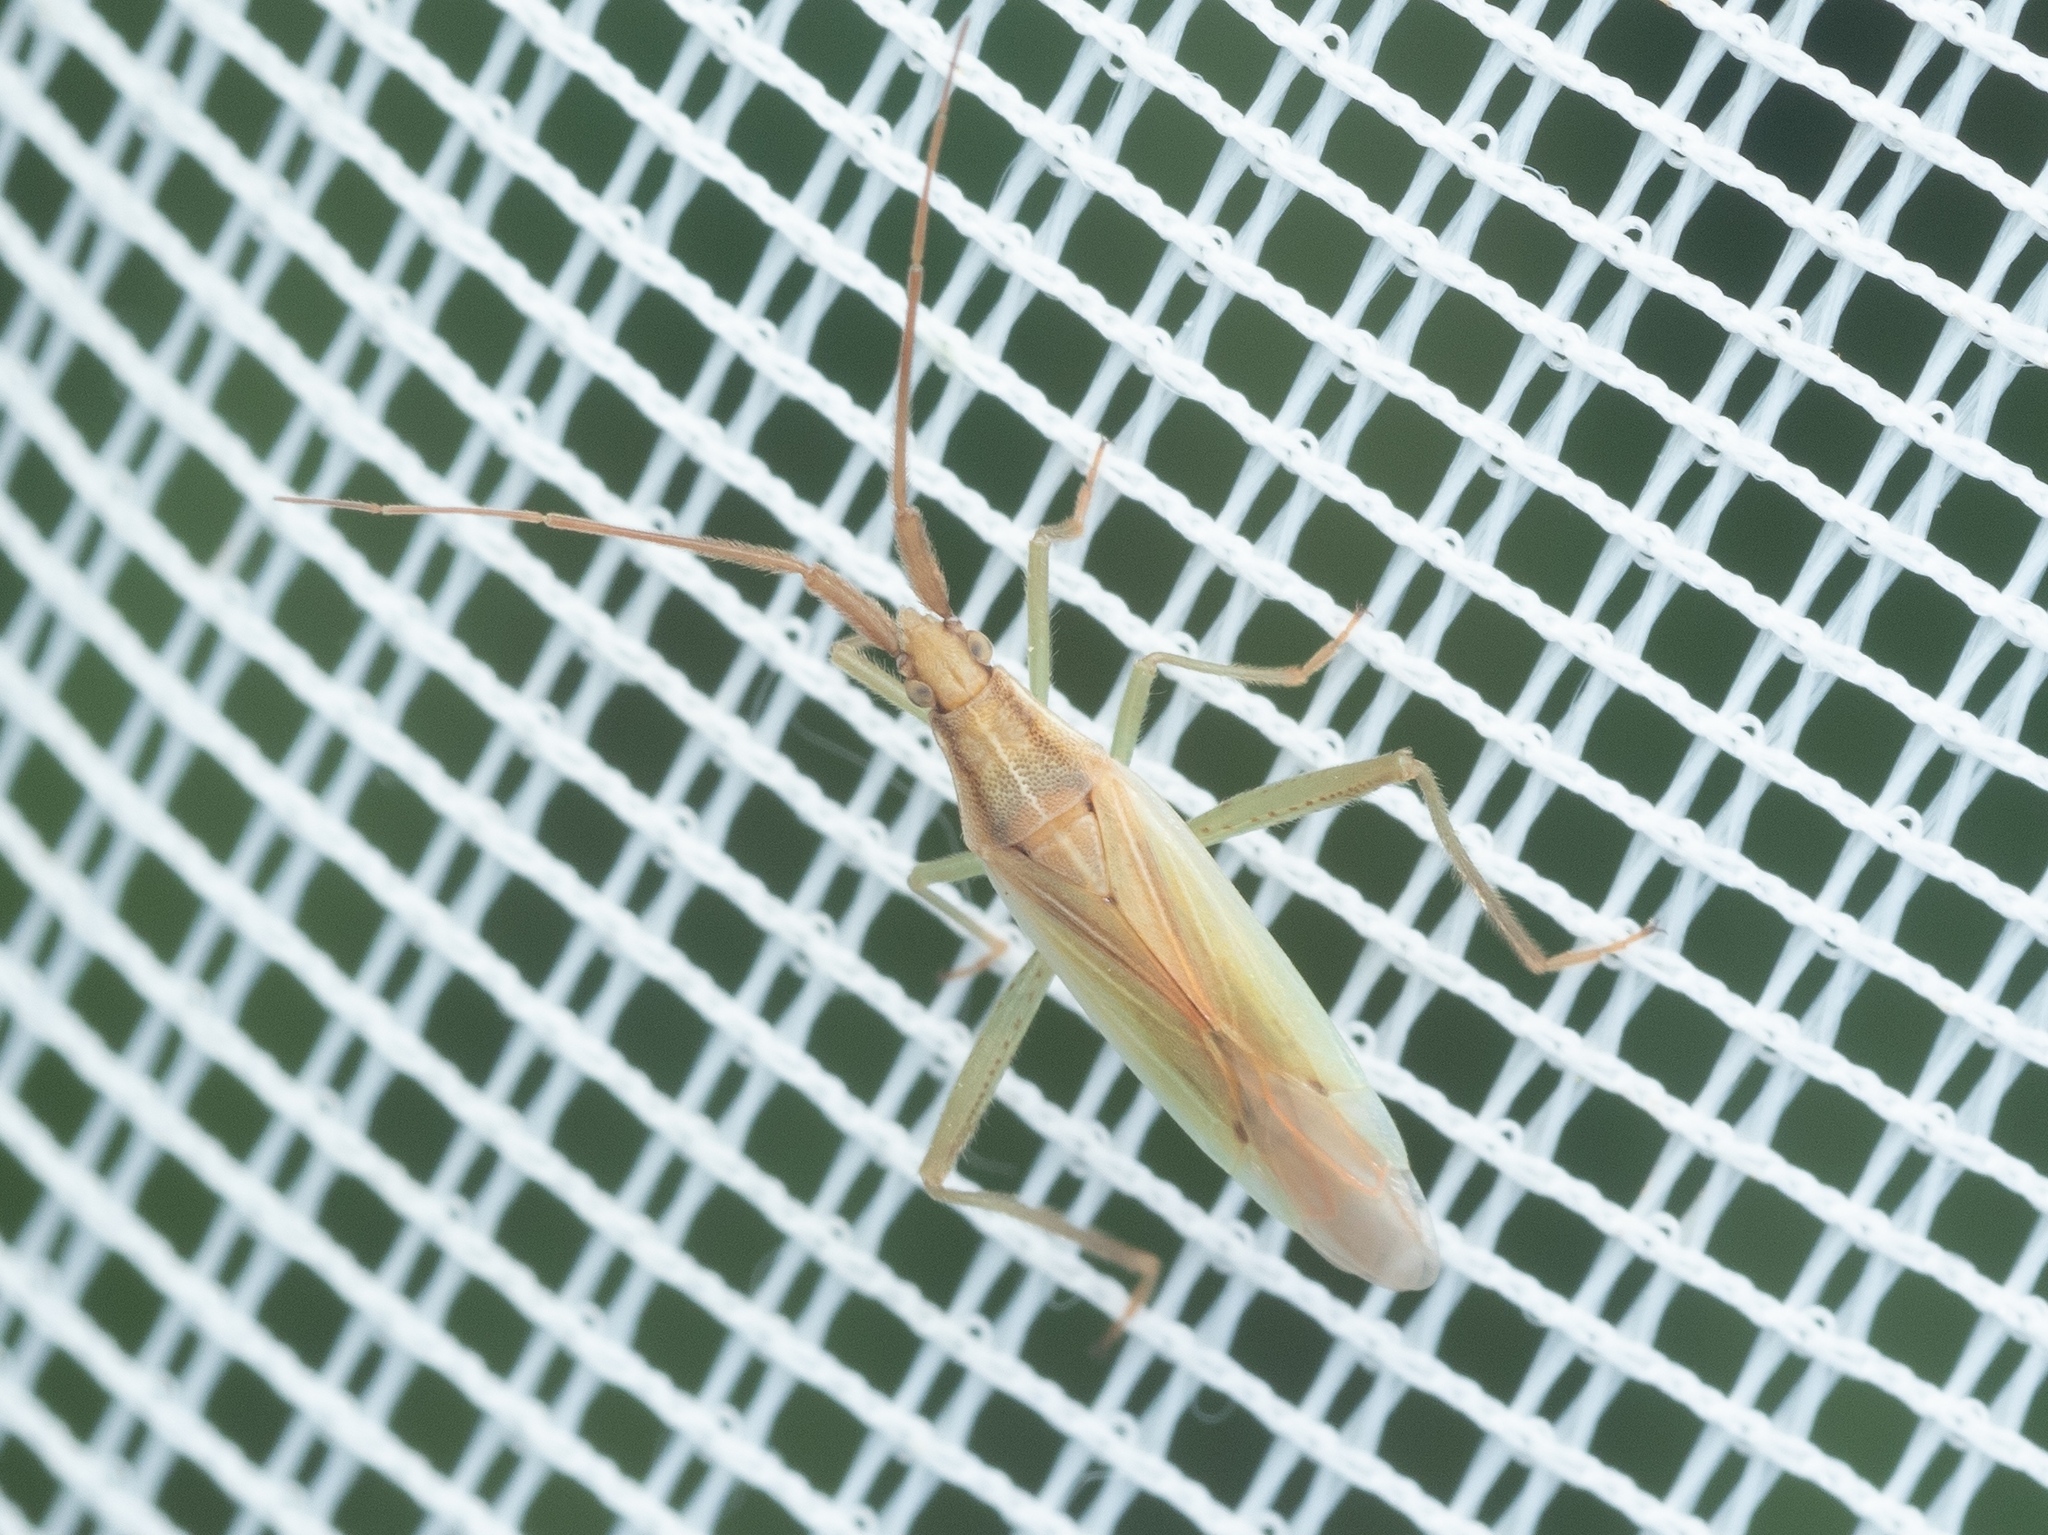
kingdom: Animalia
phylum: Arthropoda
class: Insecta
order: Hemiptera
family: Miridae
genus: Stenodema
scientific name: Stenodema laevigata
